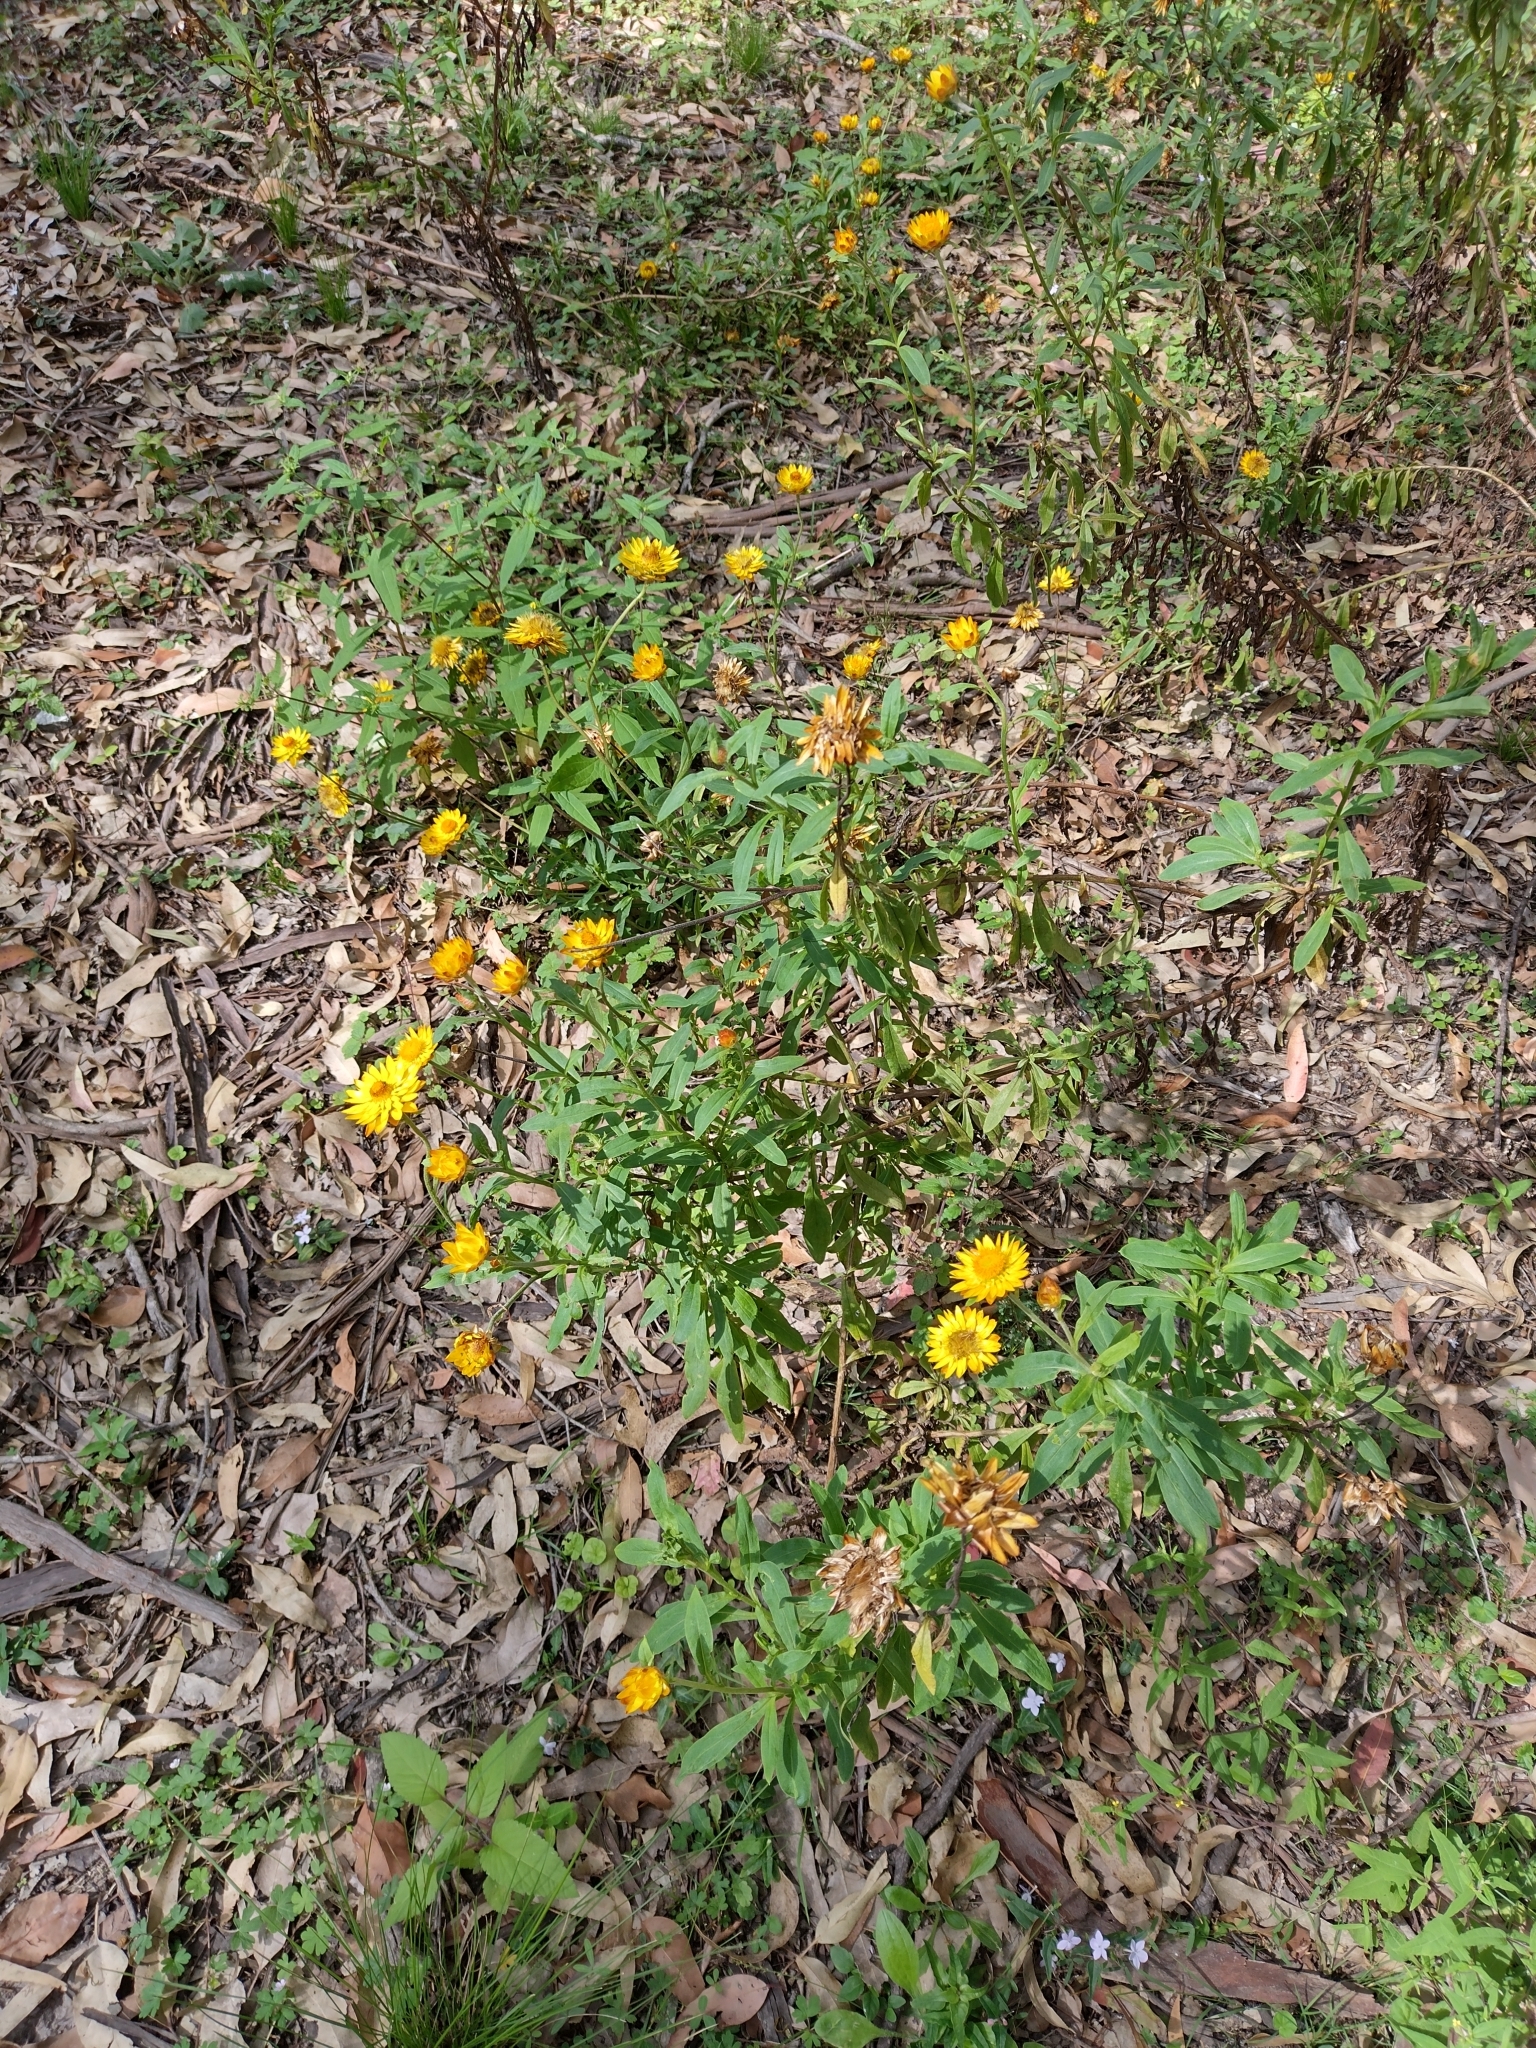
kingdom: Plantae
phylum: Tracheophyta
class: Magnoliopsida
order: Asterales
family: Asteraceae
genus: Xerochrysum
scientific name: Xerochrysum bracteatum
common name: Bracted strawflower
